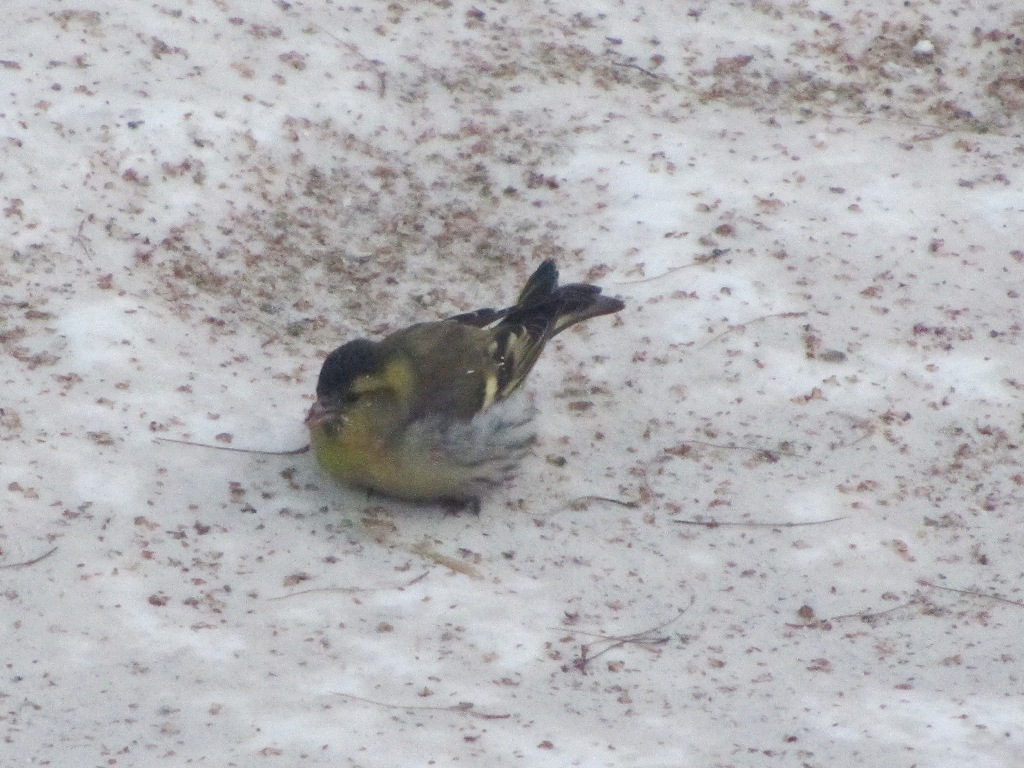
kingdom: Animalia
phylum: Chordata
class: Aves
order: Passeriformes
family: Fringillidae
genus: Spinus
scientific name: Spinus spinus
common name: Eurasian siskin
